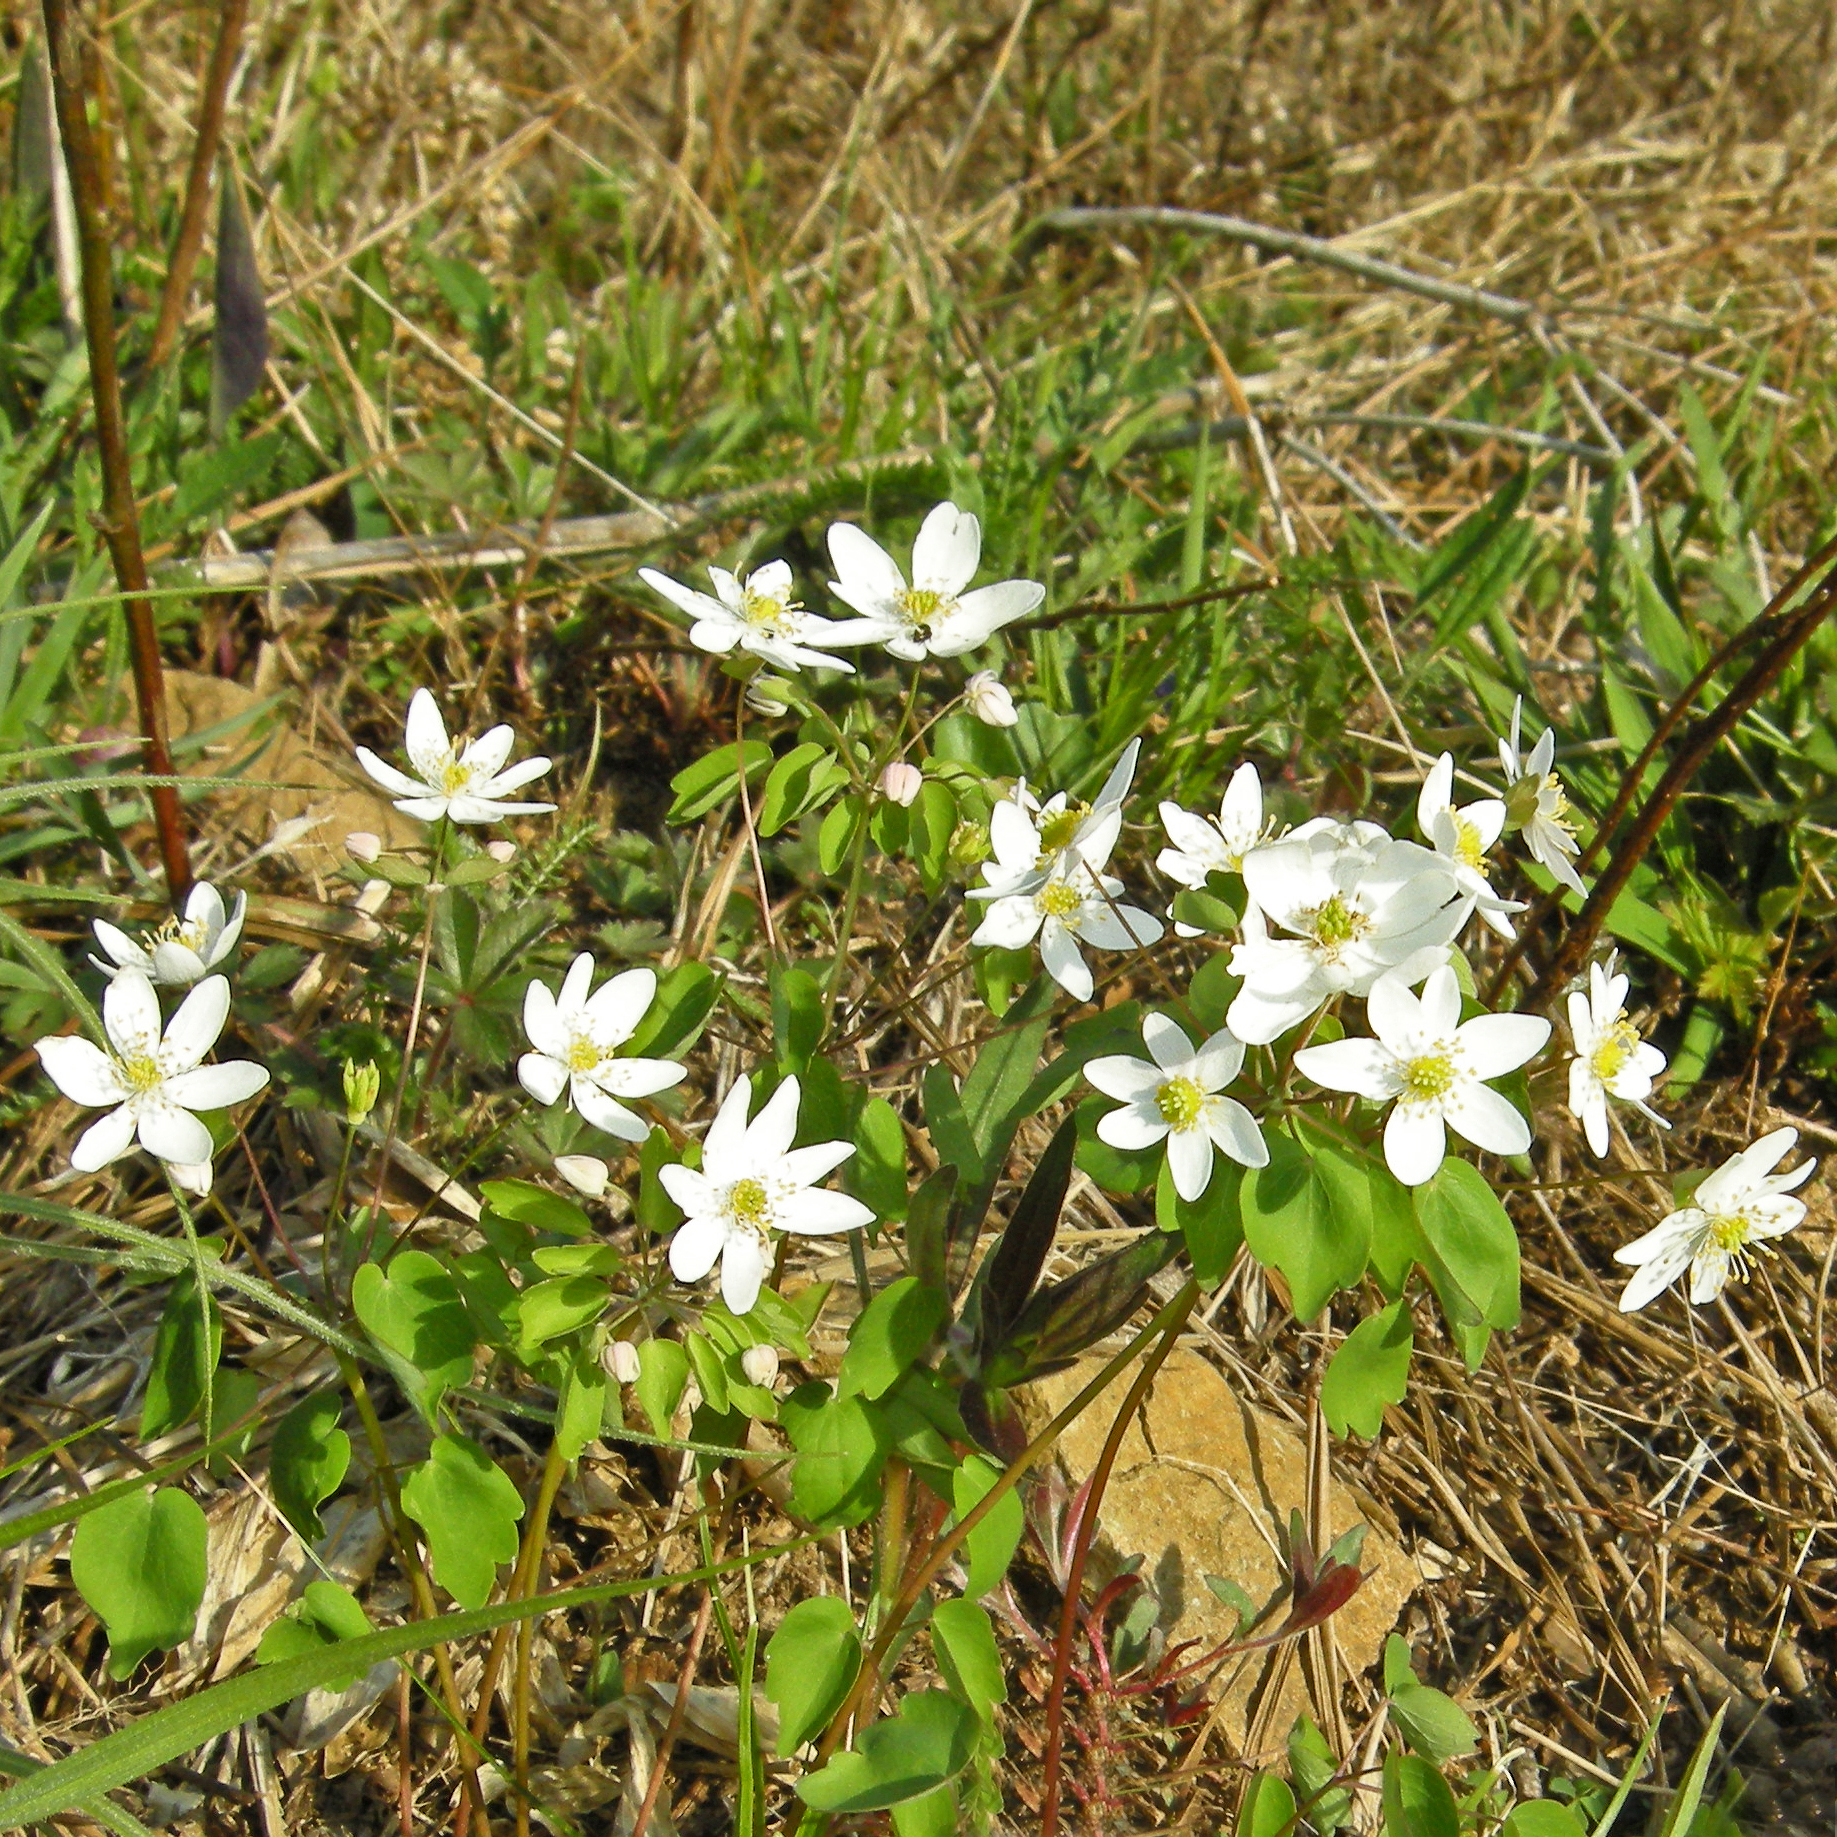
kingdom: Plantae
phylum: Tracheophyta
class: Magnoliopsida
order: Ranunculales
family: Ranunculaceae
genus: Thalictrum
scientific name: Thalictrum thalictroides
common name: Rue-anemone
